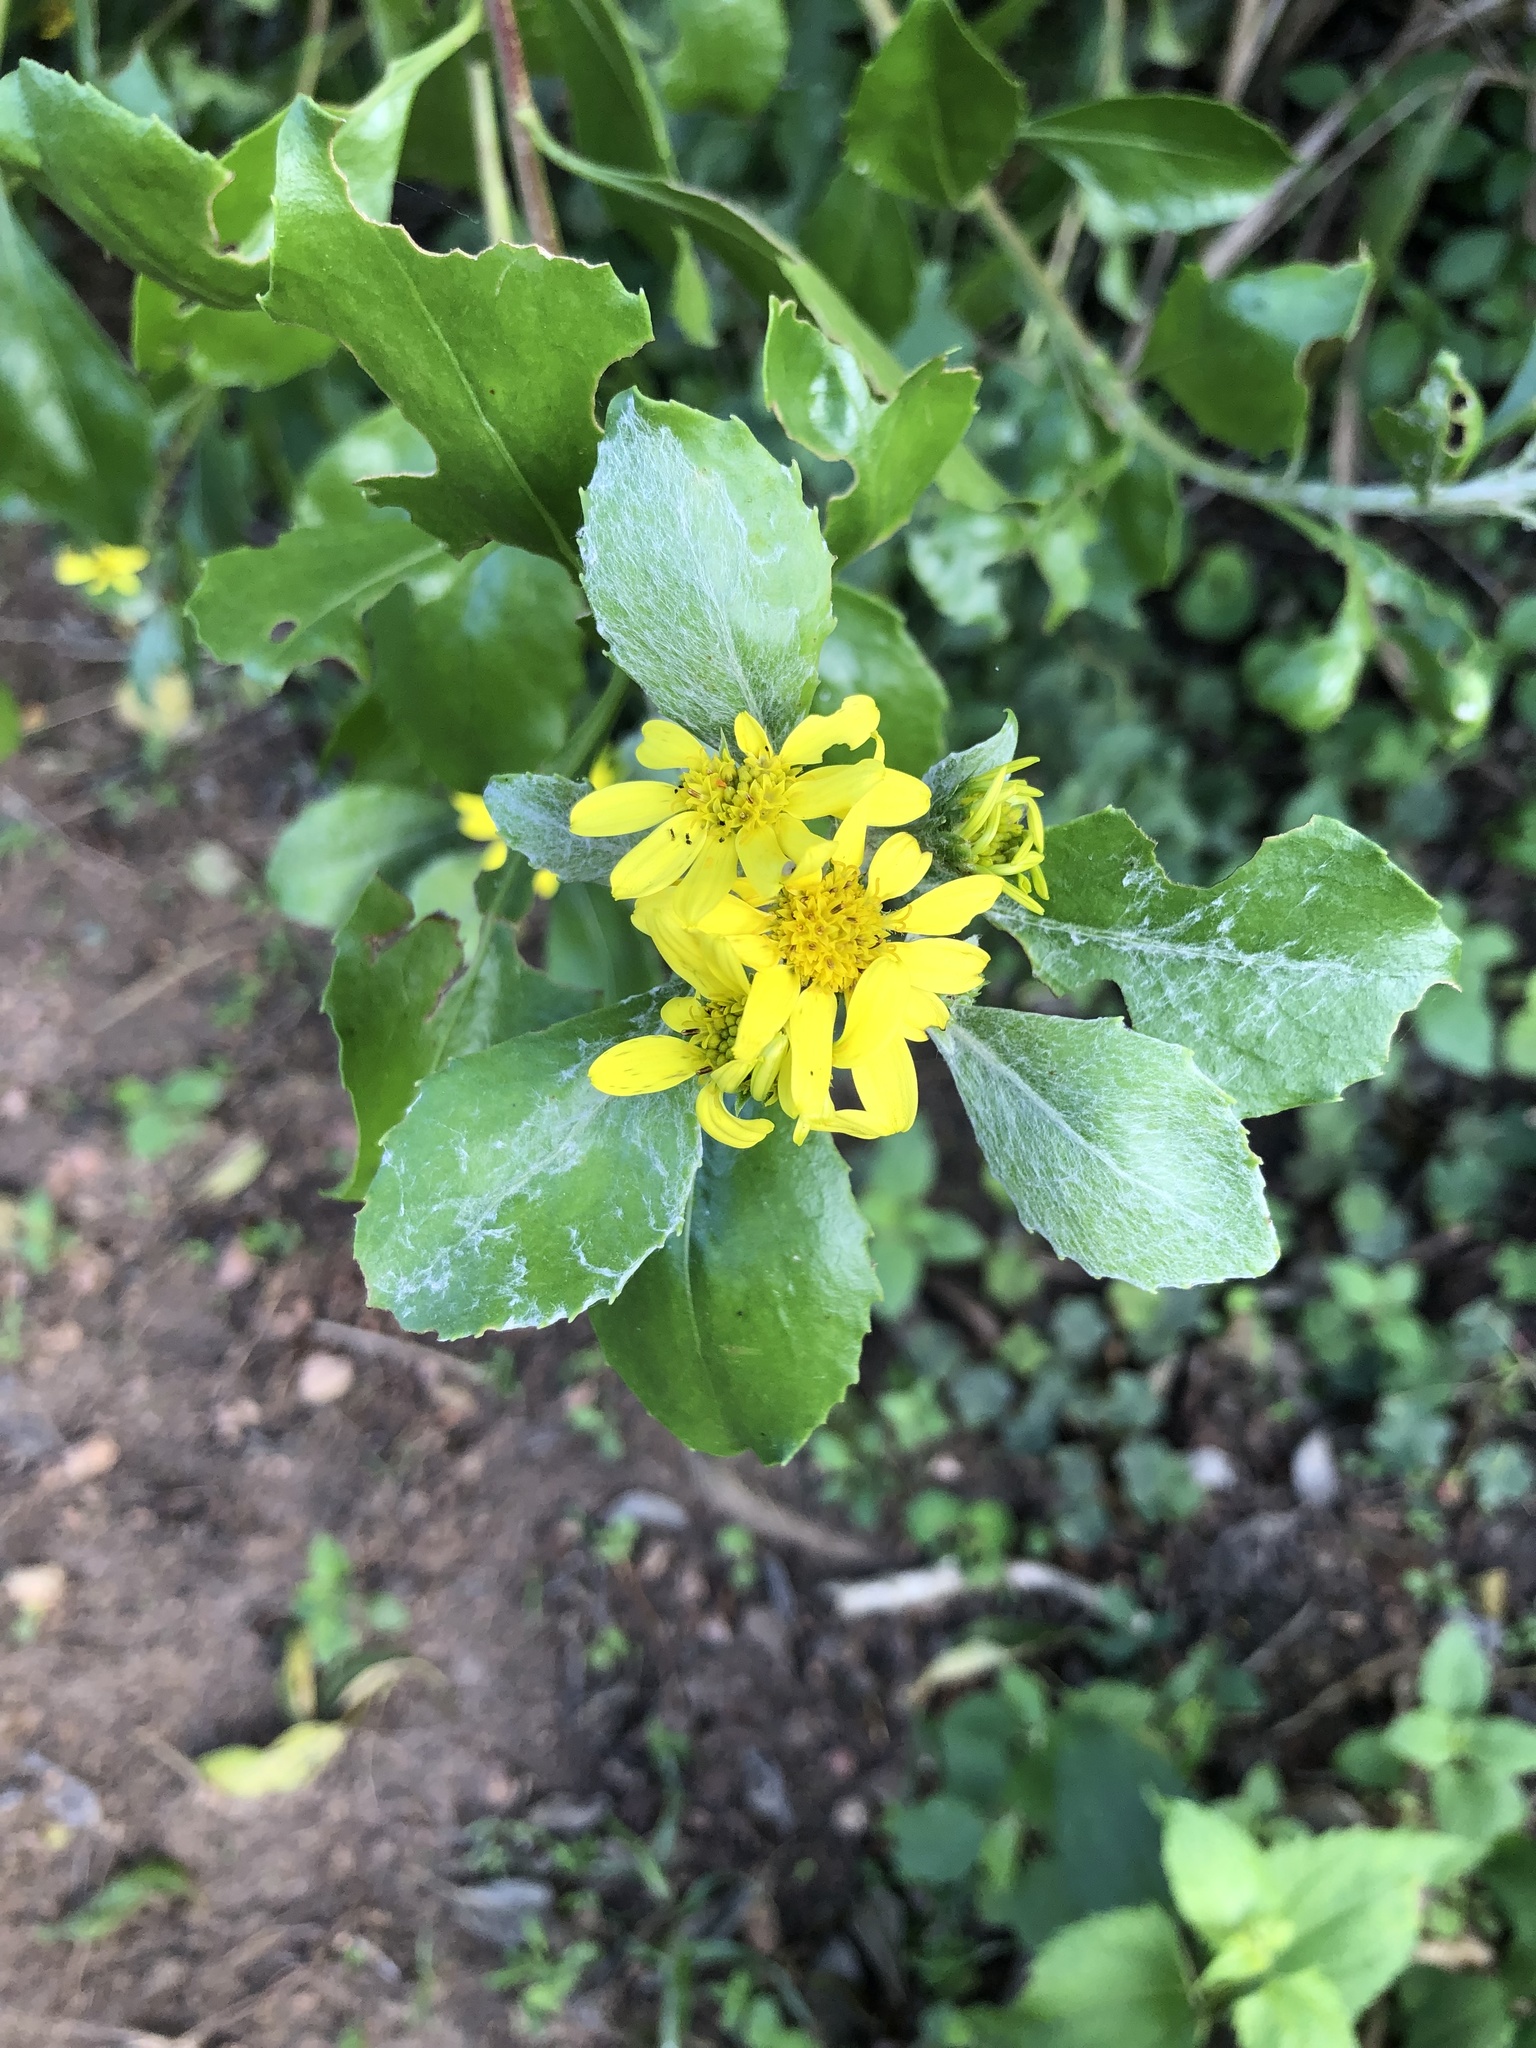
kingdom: Plantae
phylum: Tracheophyta
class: Magnoliopsida
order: Asterales
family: Asteraceae
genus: Osteospermum
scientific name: Osteospermum moniliferum
